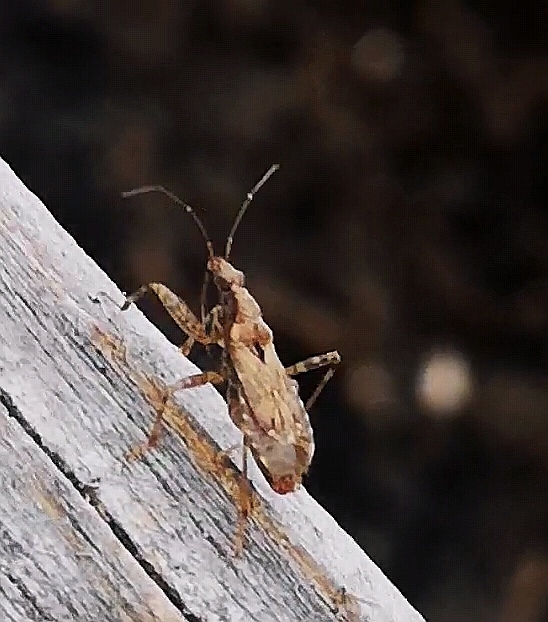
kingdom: Animalia
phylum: Arthropoda
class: Insecta
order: Hemiptera
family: Nabidae
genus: Himacerus
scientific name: Himacerus mirmicoides
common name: Ant damsel bug
